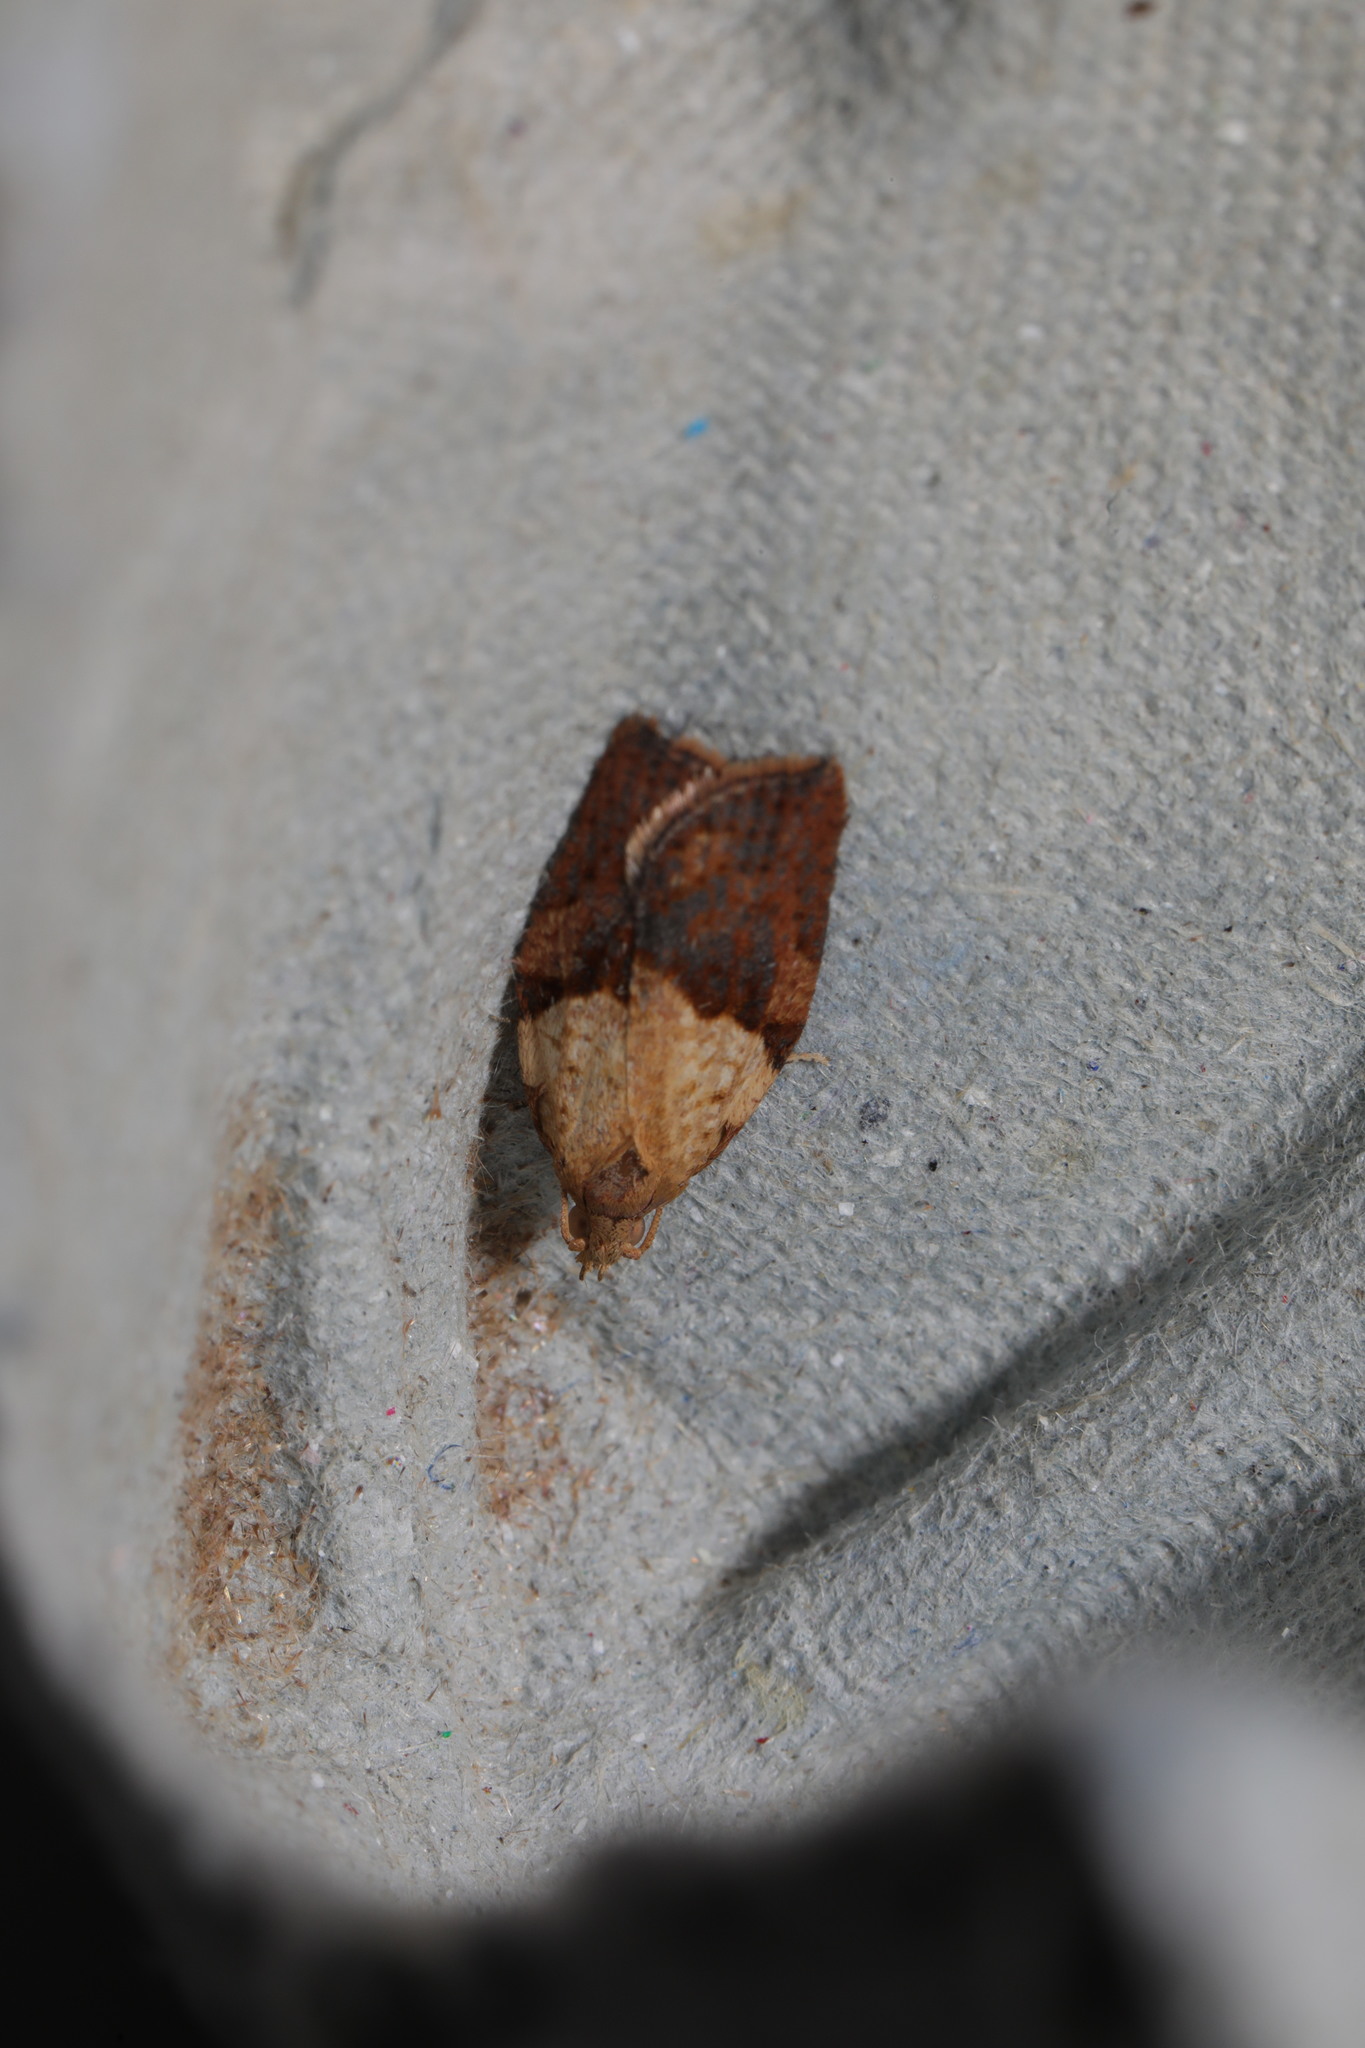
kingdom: Animalia
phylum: Arthropoda
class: Insecta
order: Lepidoptera
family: Tortricidae
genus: Epiphyas
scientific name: Epiphyas postvittana
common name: Light brown apple moth
